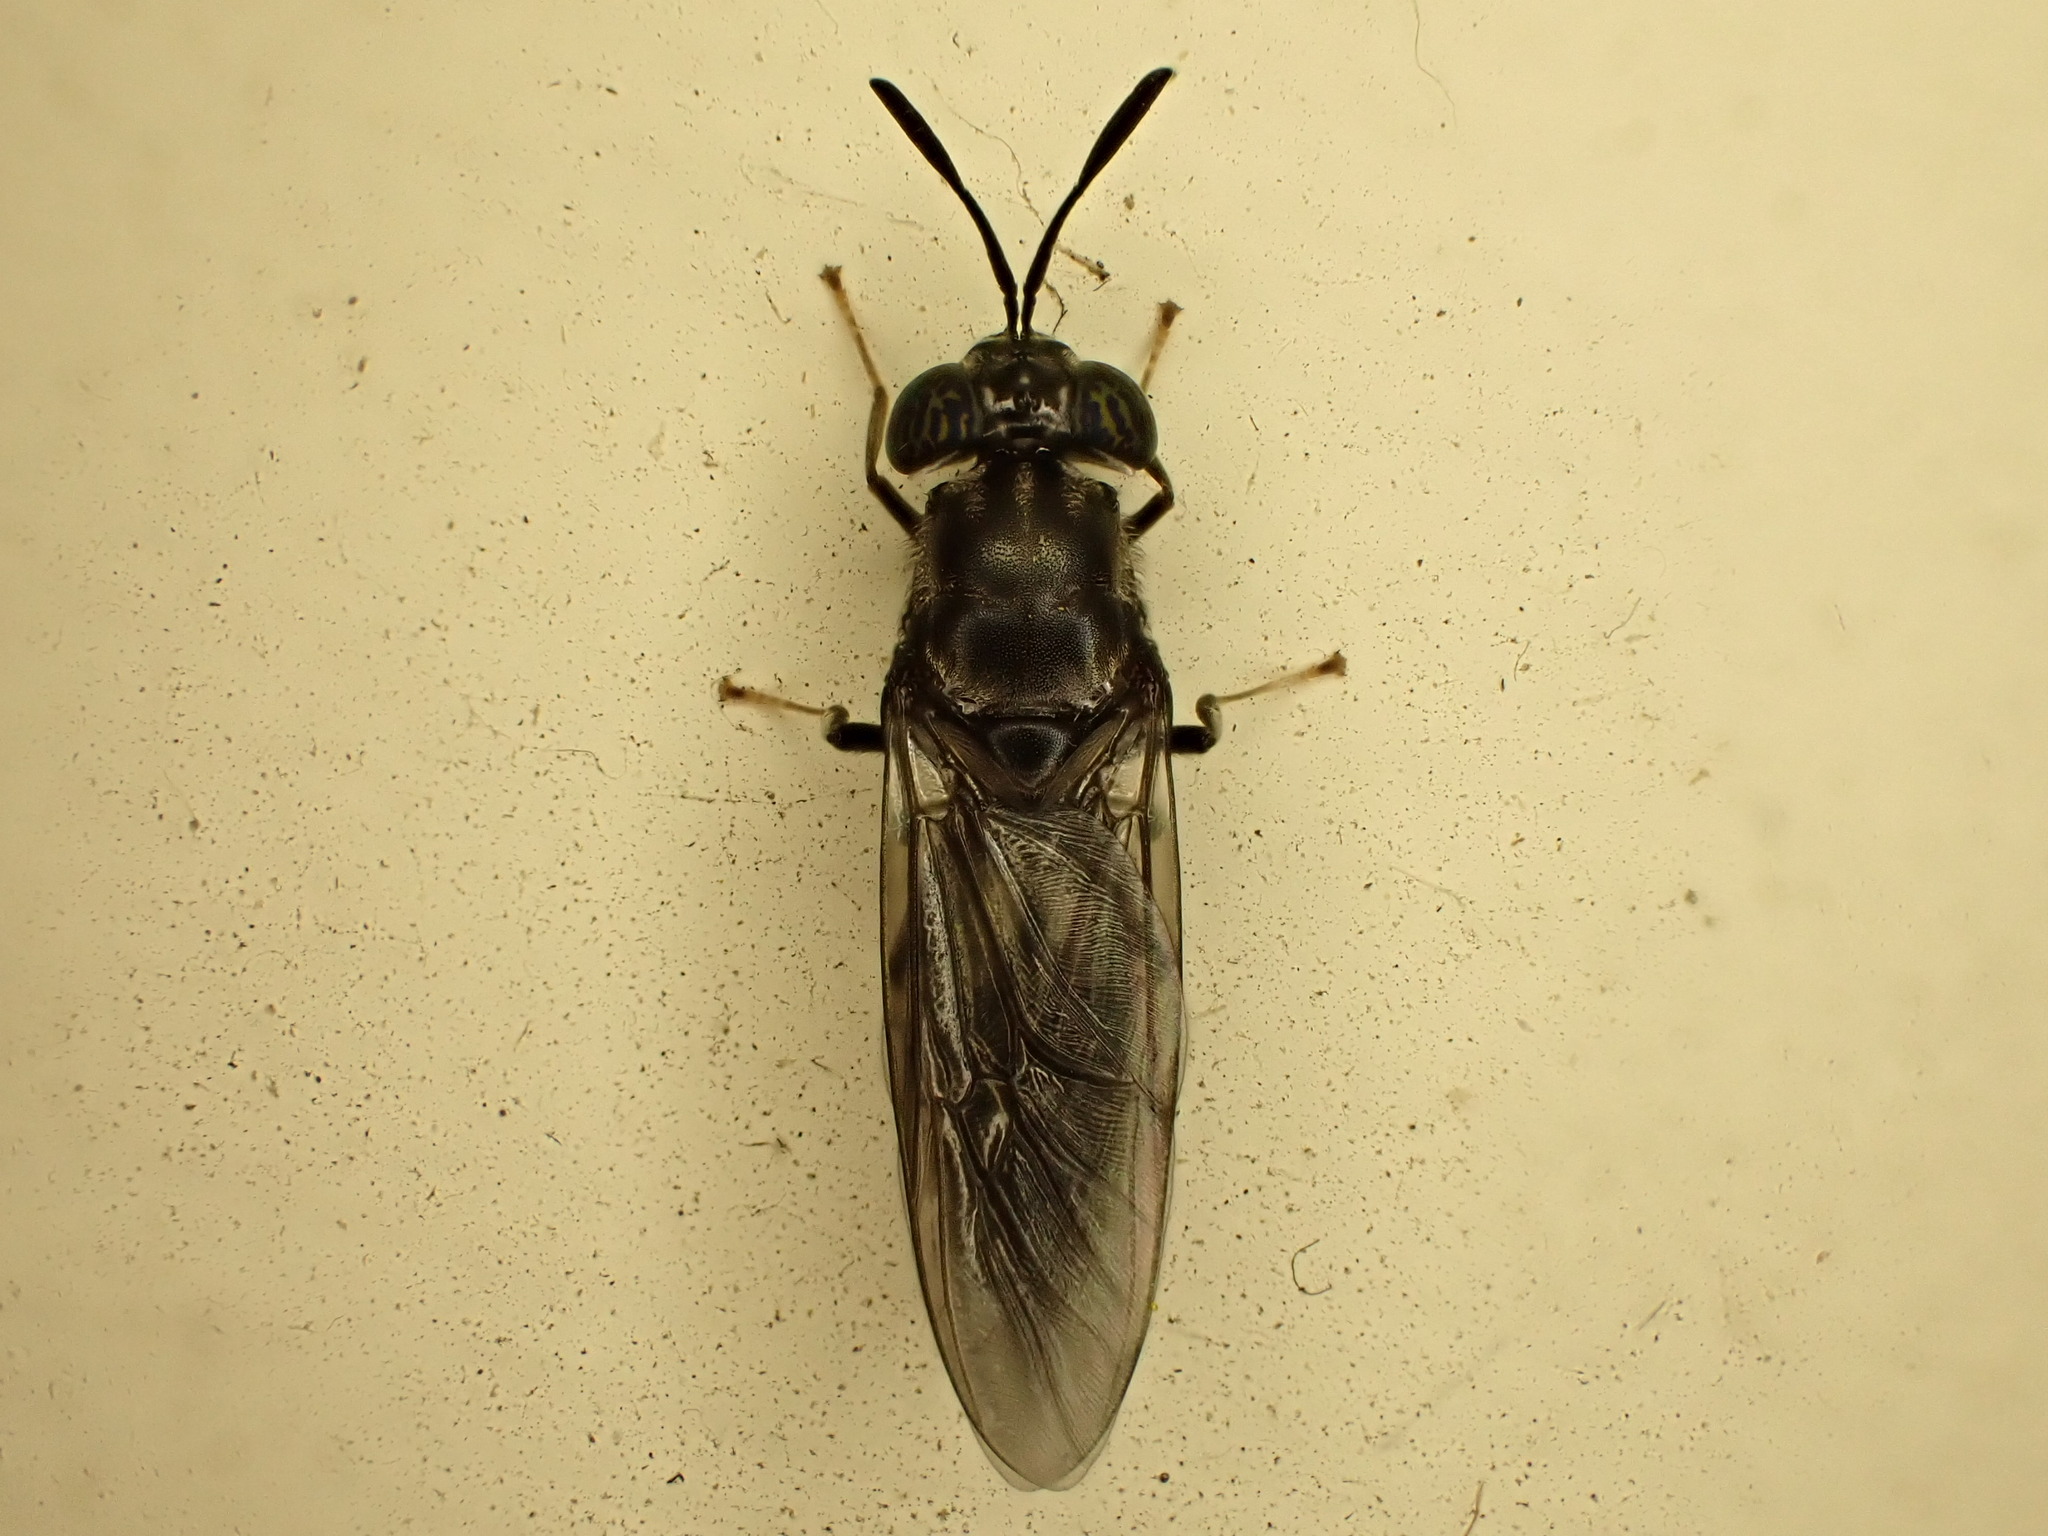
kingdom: Animalia
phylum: Arthropoda
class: Insecta
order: Diptera
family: Stratiomyidae
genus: Hermetia
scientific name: Hermetia illucens
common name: Black soldier fly
